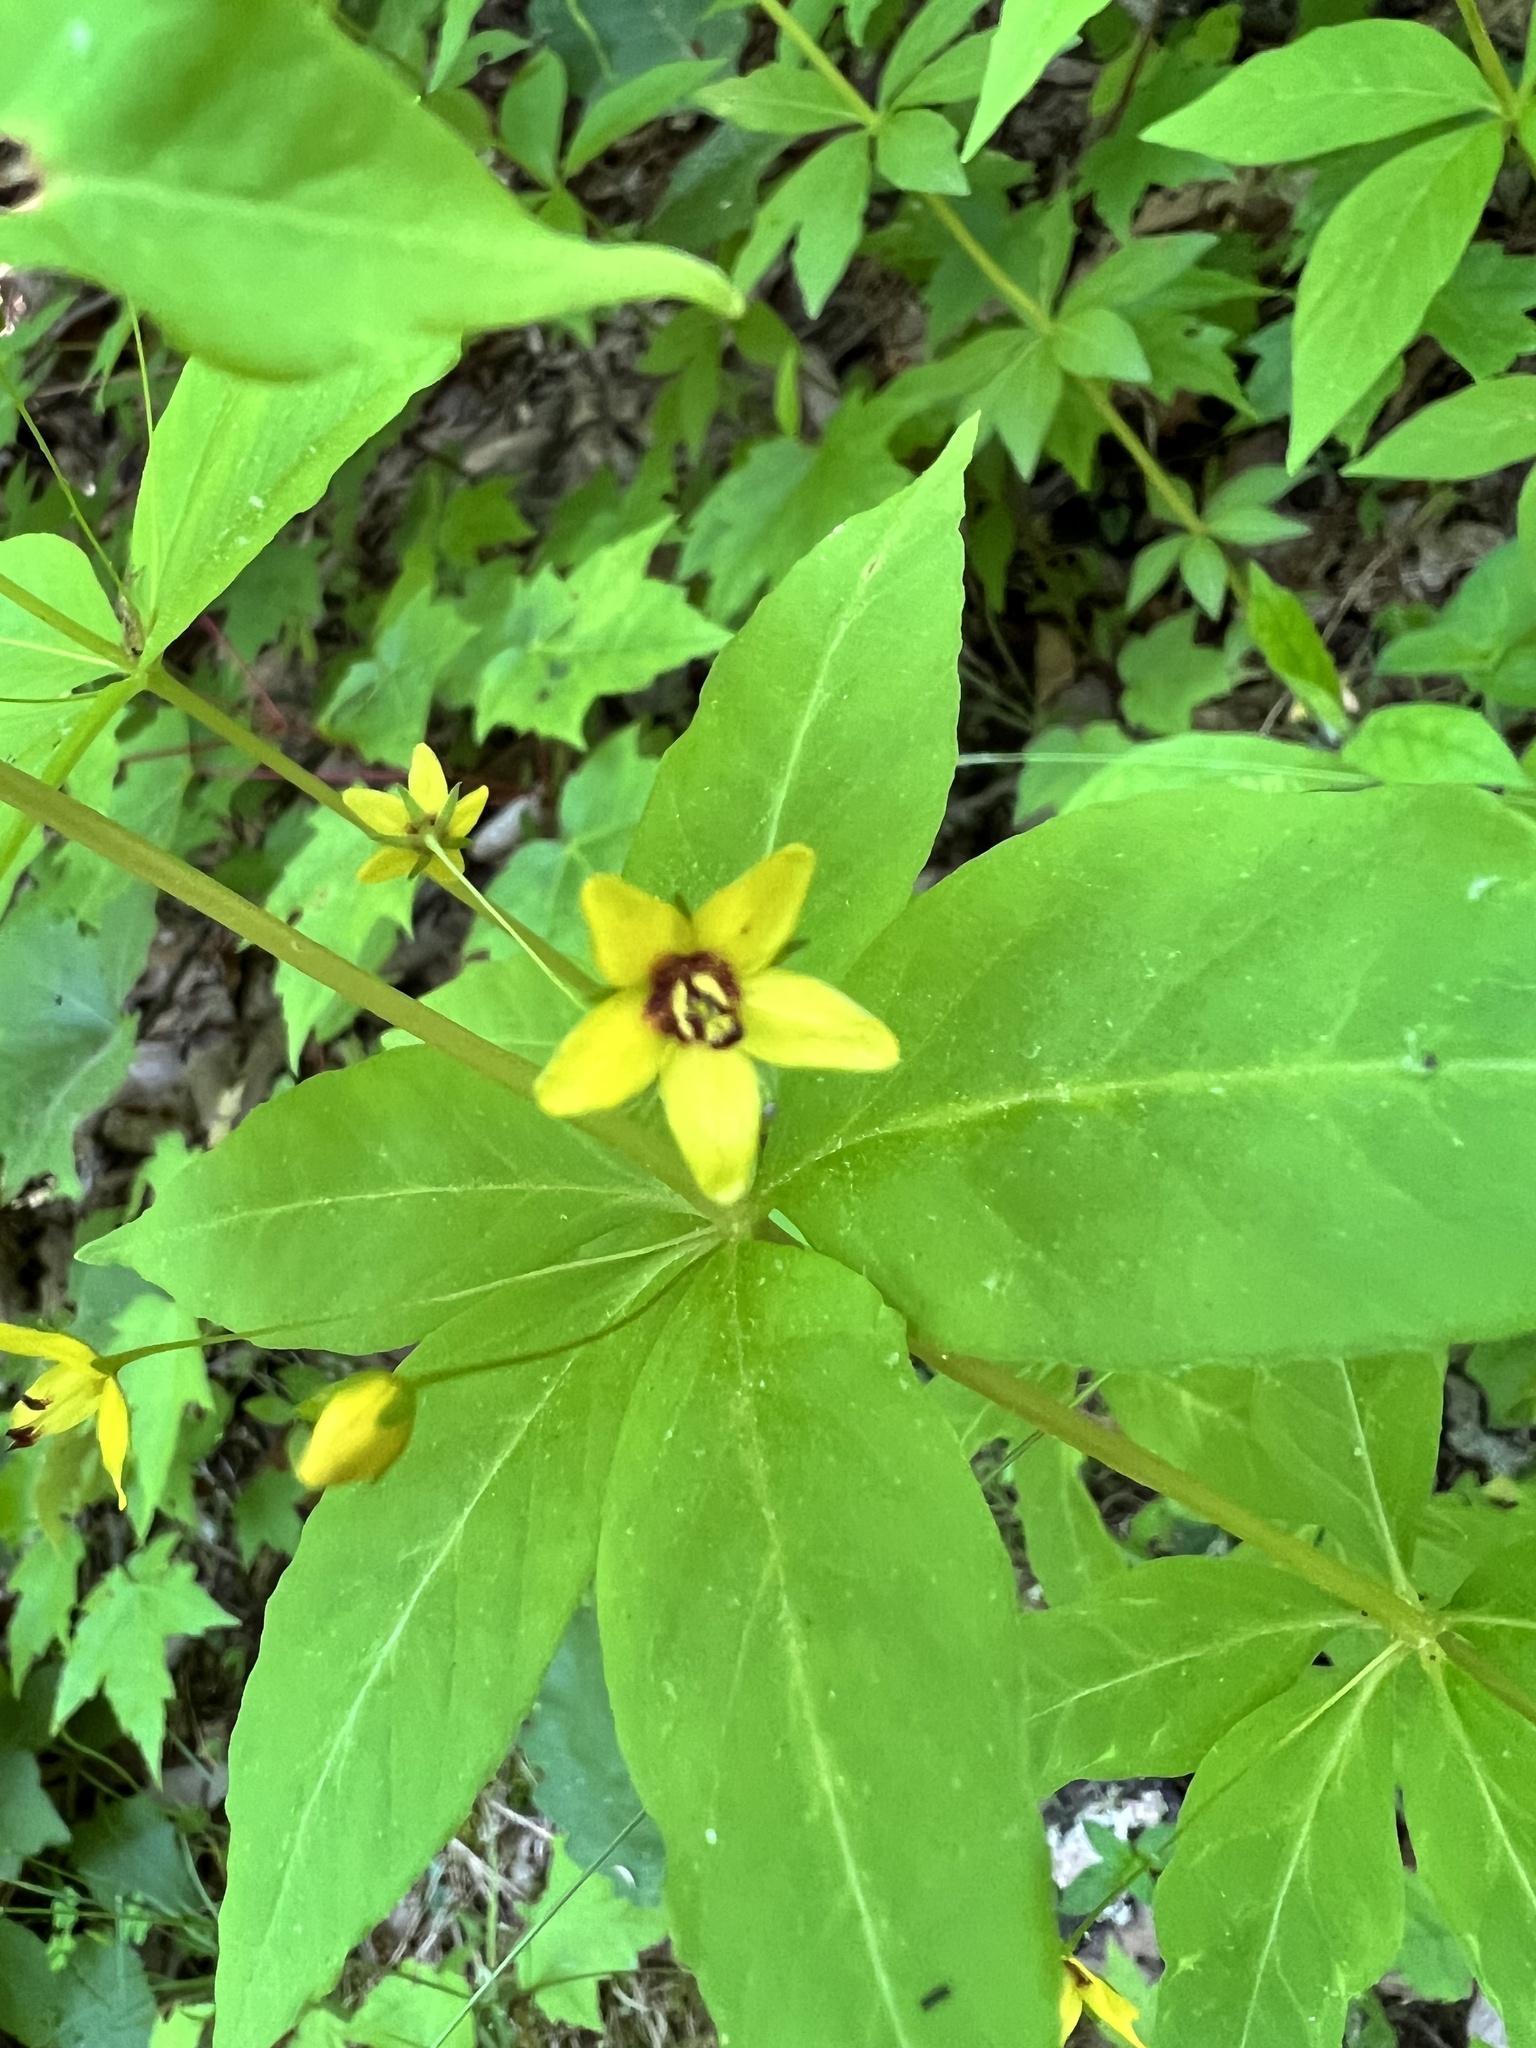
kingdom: Plantae
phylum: Tracheophyta
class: Magnoliopsida
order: Ericales
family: Primulaceae
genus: Lysimachia
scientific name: Lysimachia quadrifolia
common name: Whorled loosestrife
